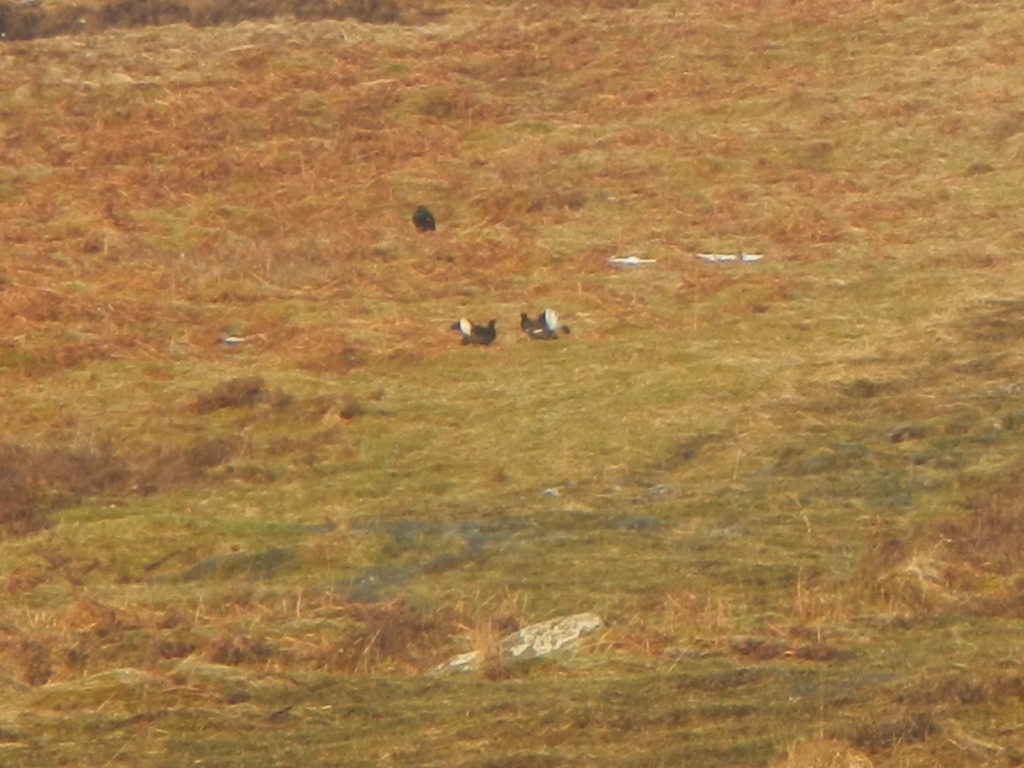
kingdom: Animalia
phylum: Chordata
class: Aves
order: Galliformes
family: Phasianidae
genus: Lyrurus
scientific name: Lyrurus tetrix
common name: Black grouse
